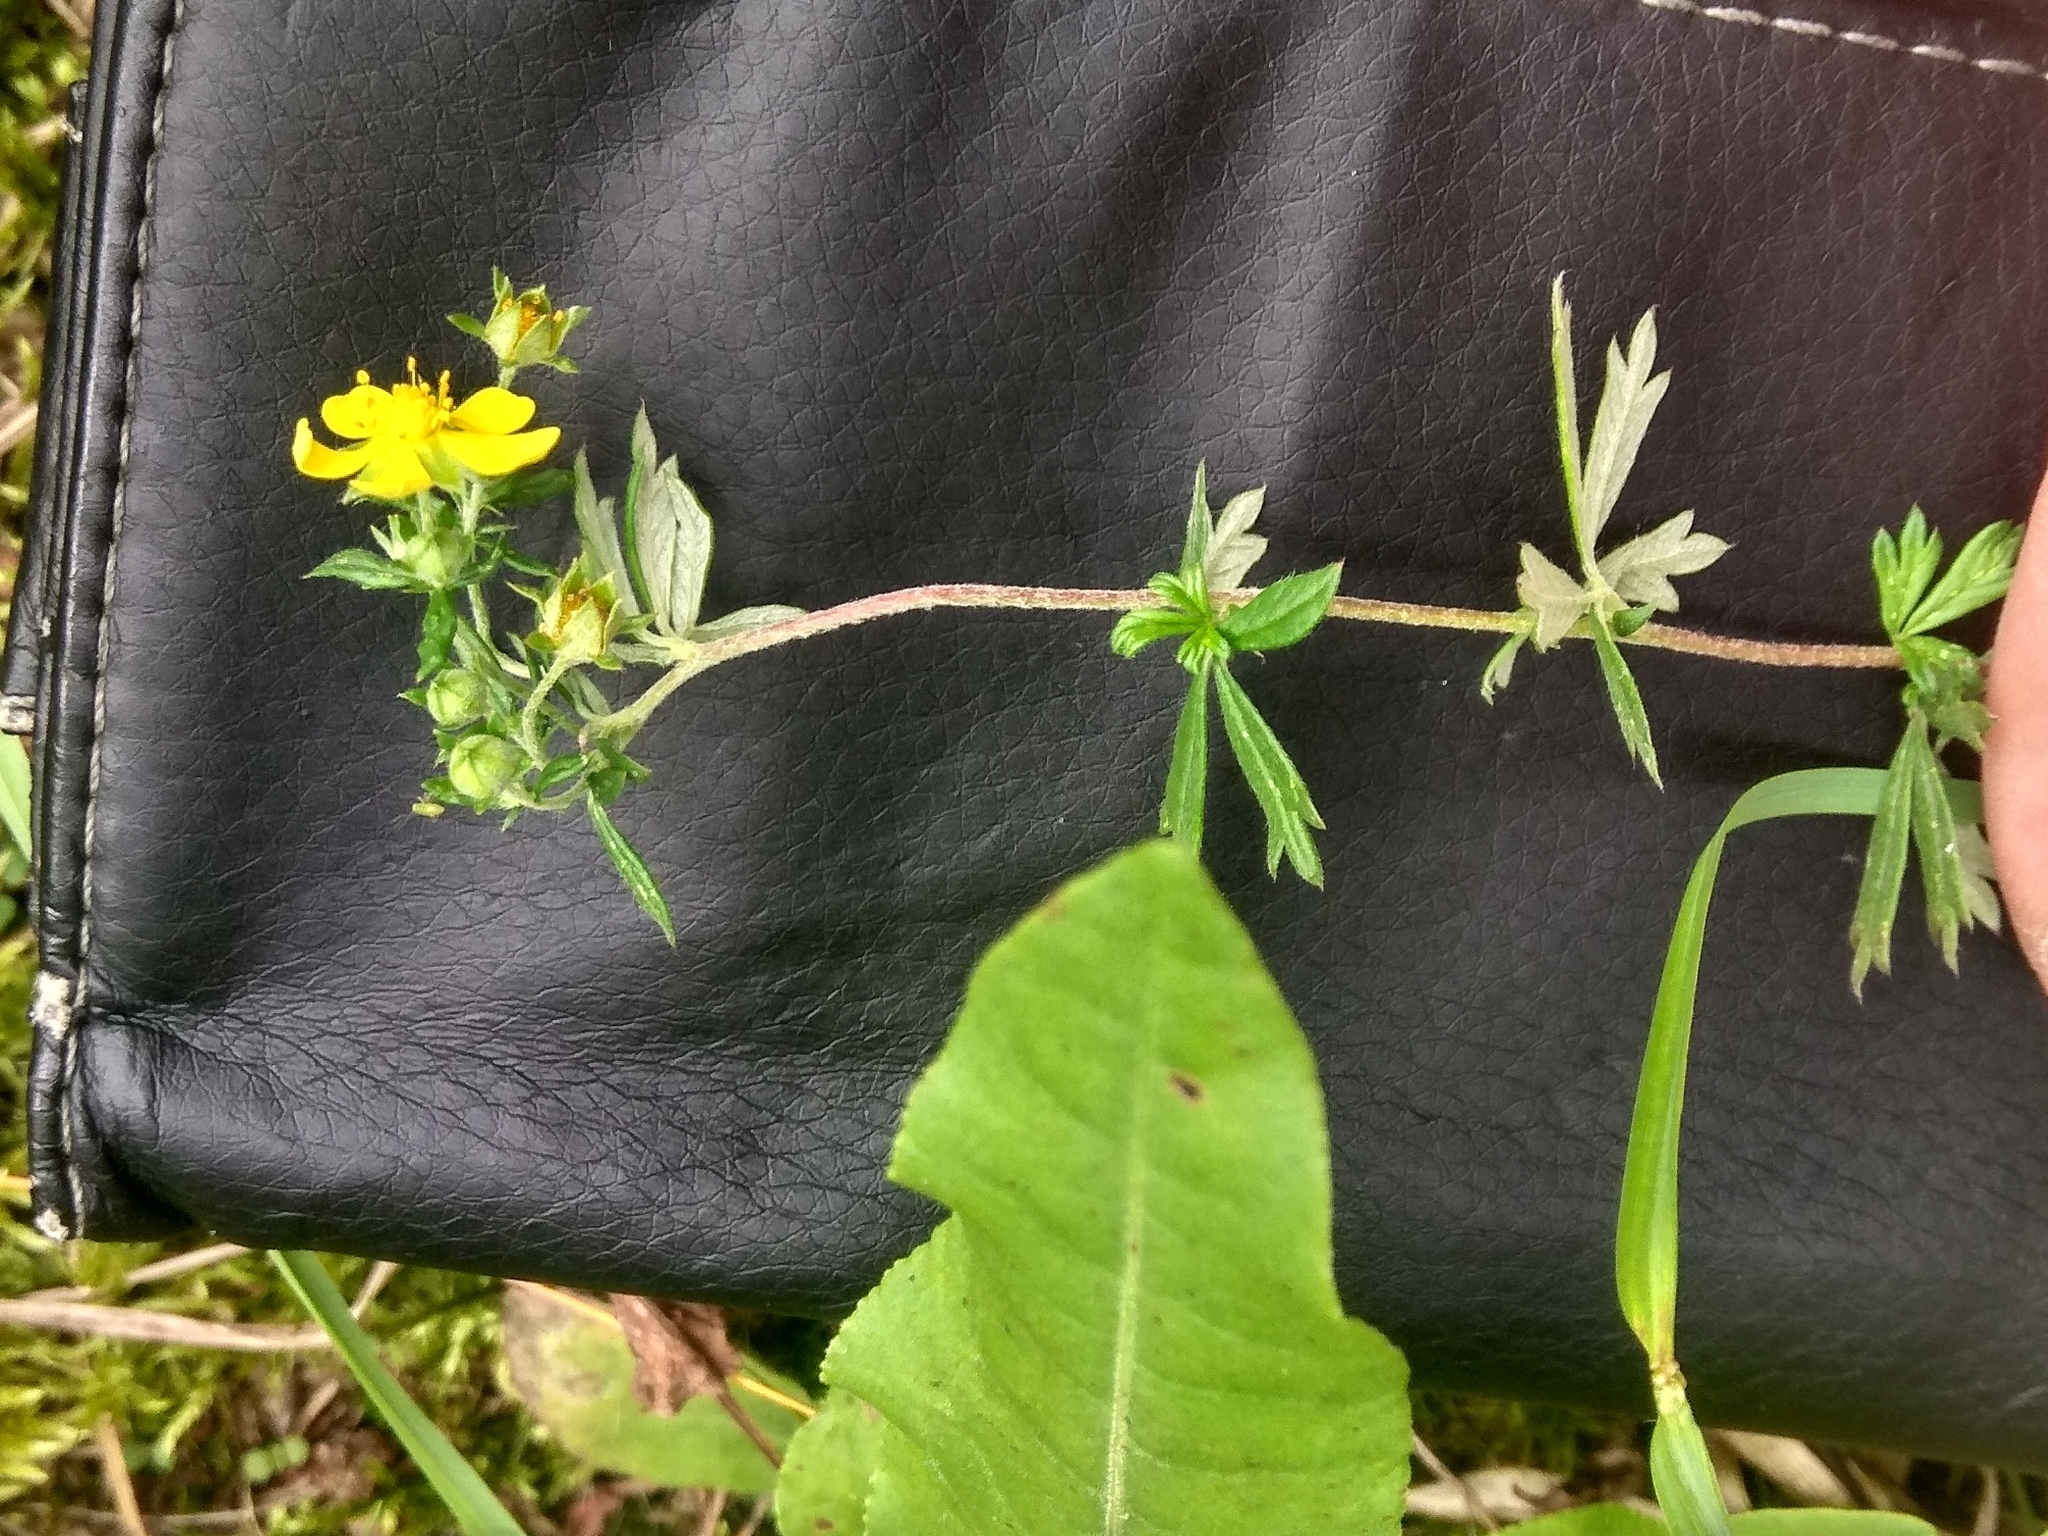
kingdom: Plantae
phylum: Tracheophyta
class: Magnoliopsida
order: Rosales
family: Rosaceae
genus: Potentilla
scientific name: Potentilla argentea
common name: Hoary cinquefoil
